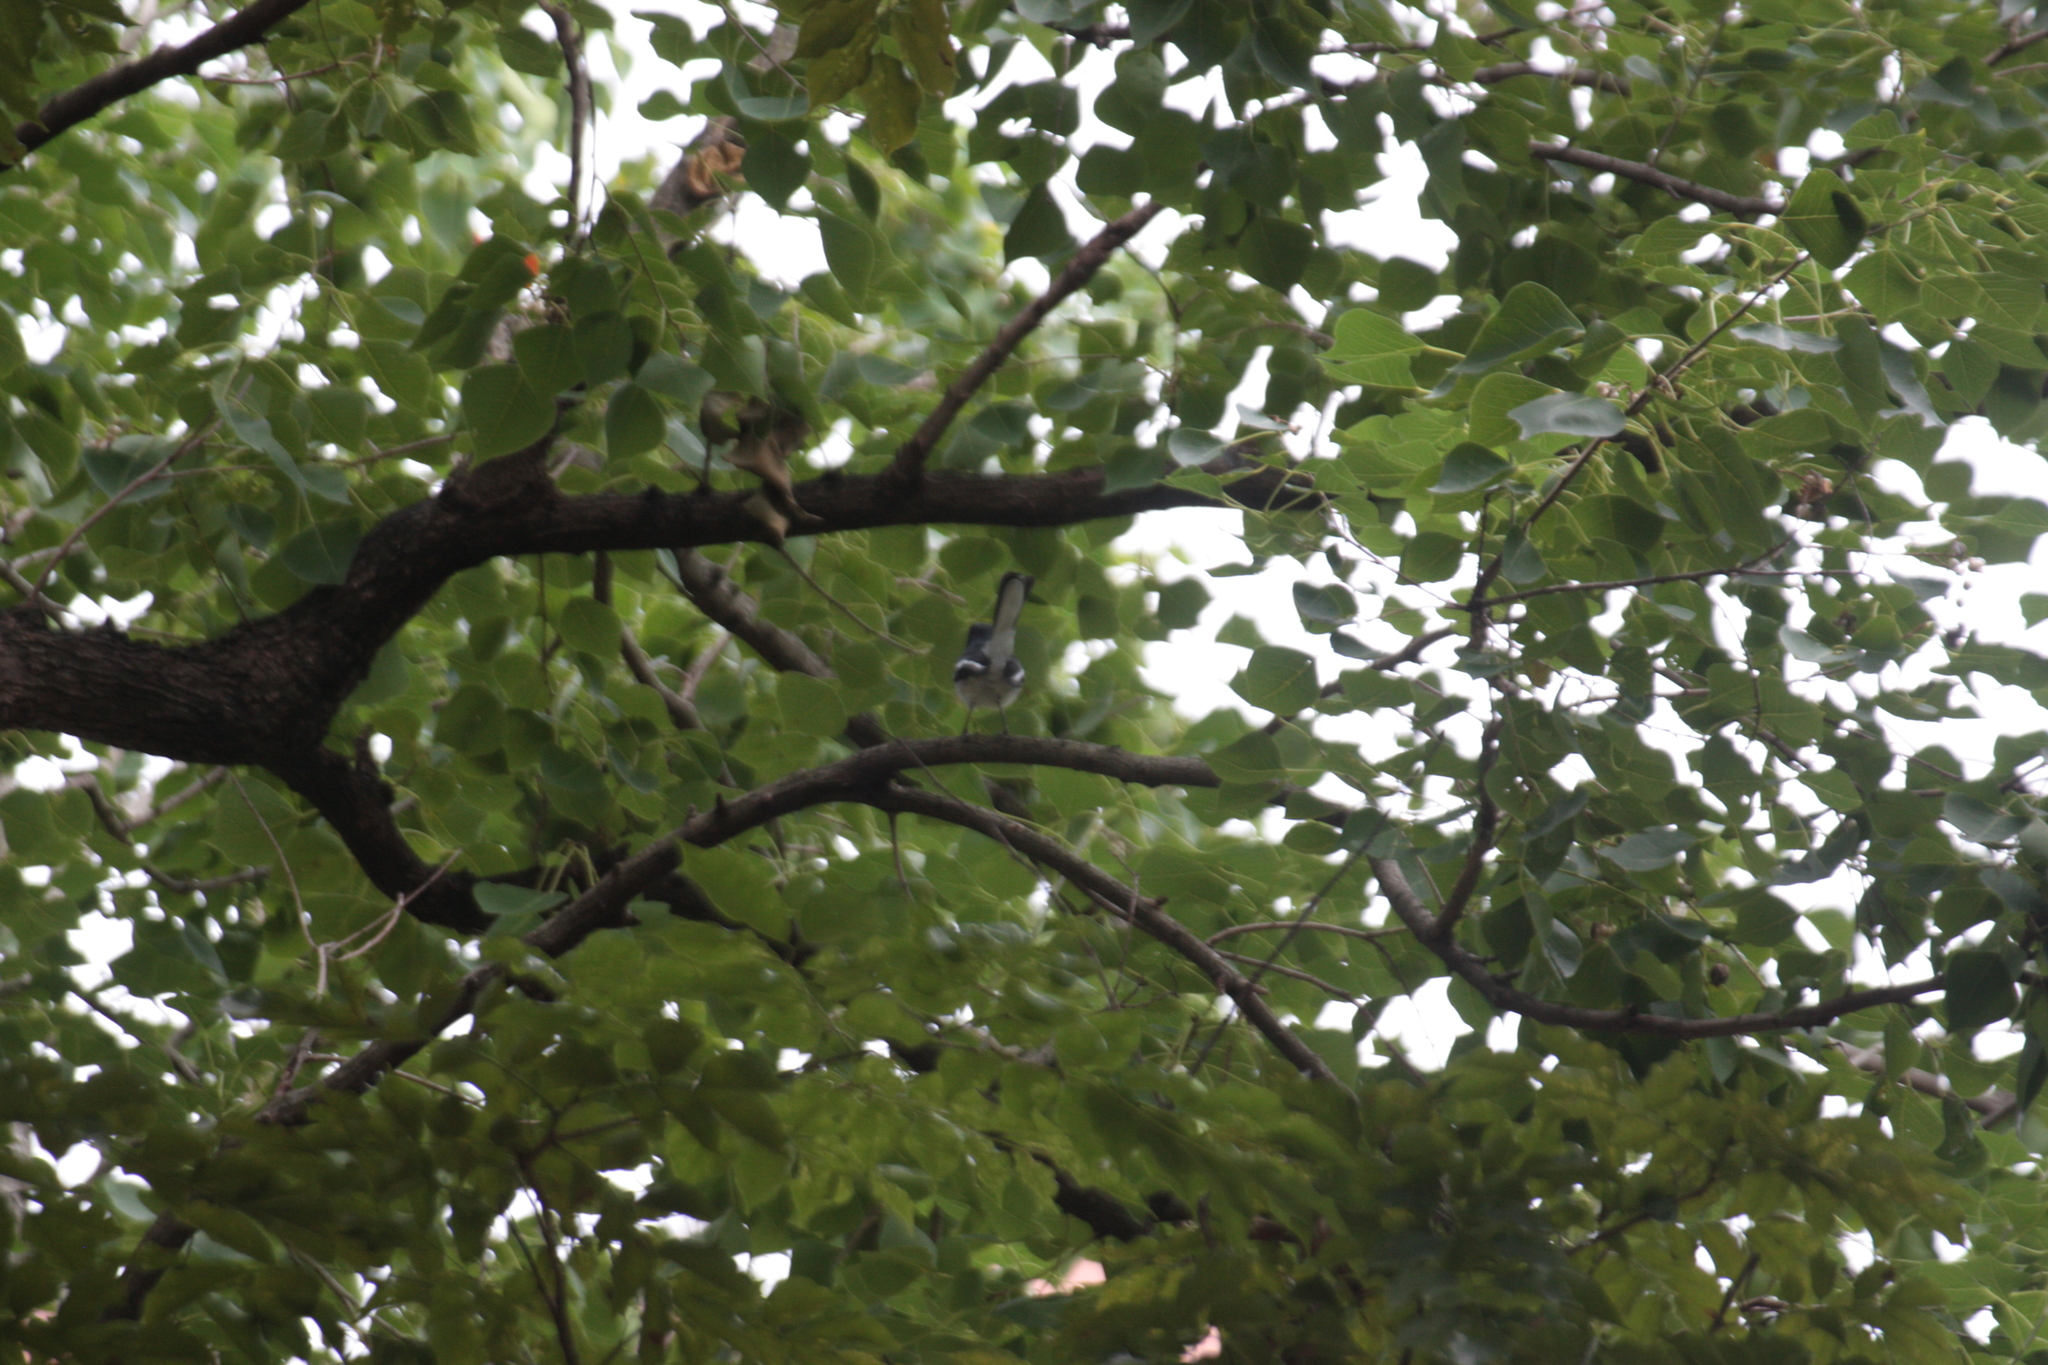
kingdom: Animalia
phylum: Chordata
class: Aves
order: Passeriformes
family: Muscicapidae
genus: Copsychus
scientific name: Copsychus saularis
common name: Oriental magpie-robin
